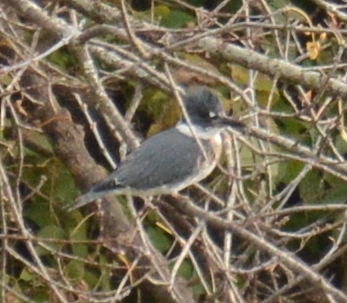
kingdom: Animalia
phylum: Chordata
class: Aves
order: Coraciiformes
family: Alcedinidae
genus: Megaceryle
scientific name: Megaceryle alcyon
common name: Belted kingfisher
